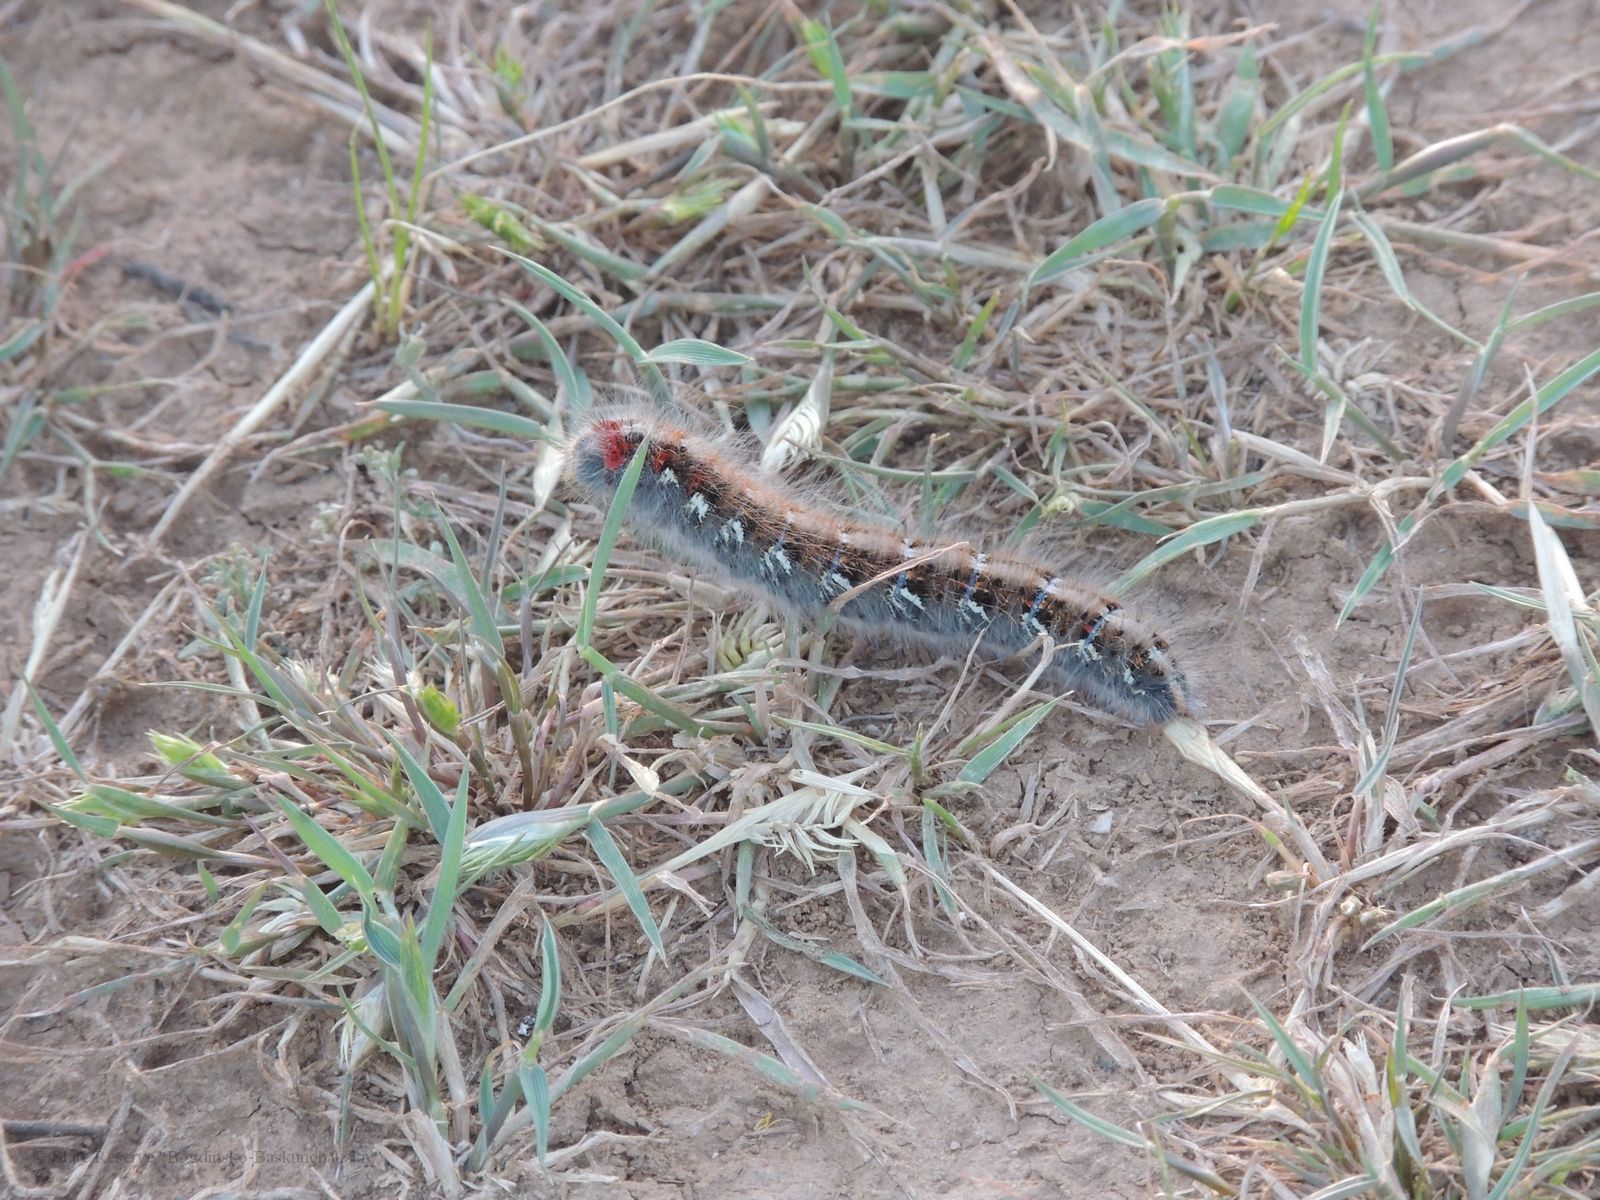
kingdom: Animalia
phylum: Arthropoda
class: Insecta
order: Lepidoptera
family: Lasiocampidae
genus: Lasiocampa
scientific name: Lasiocampa eversmanni
